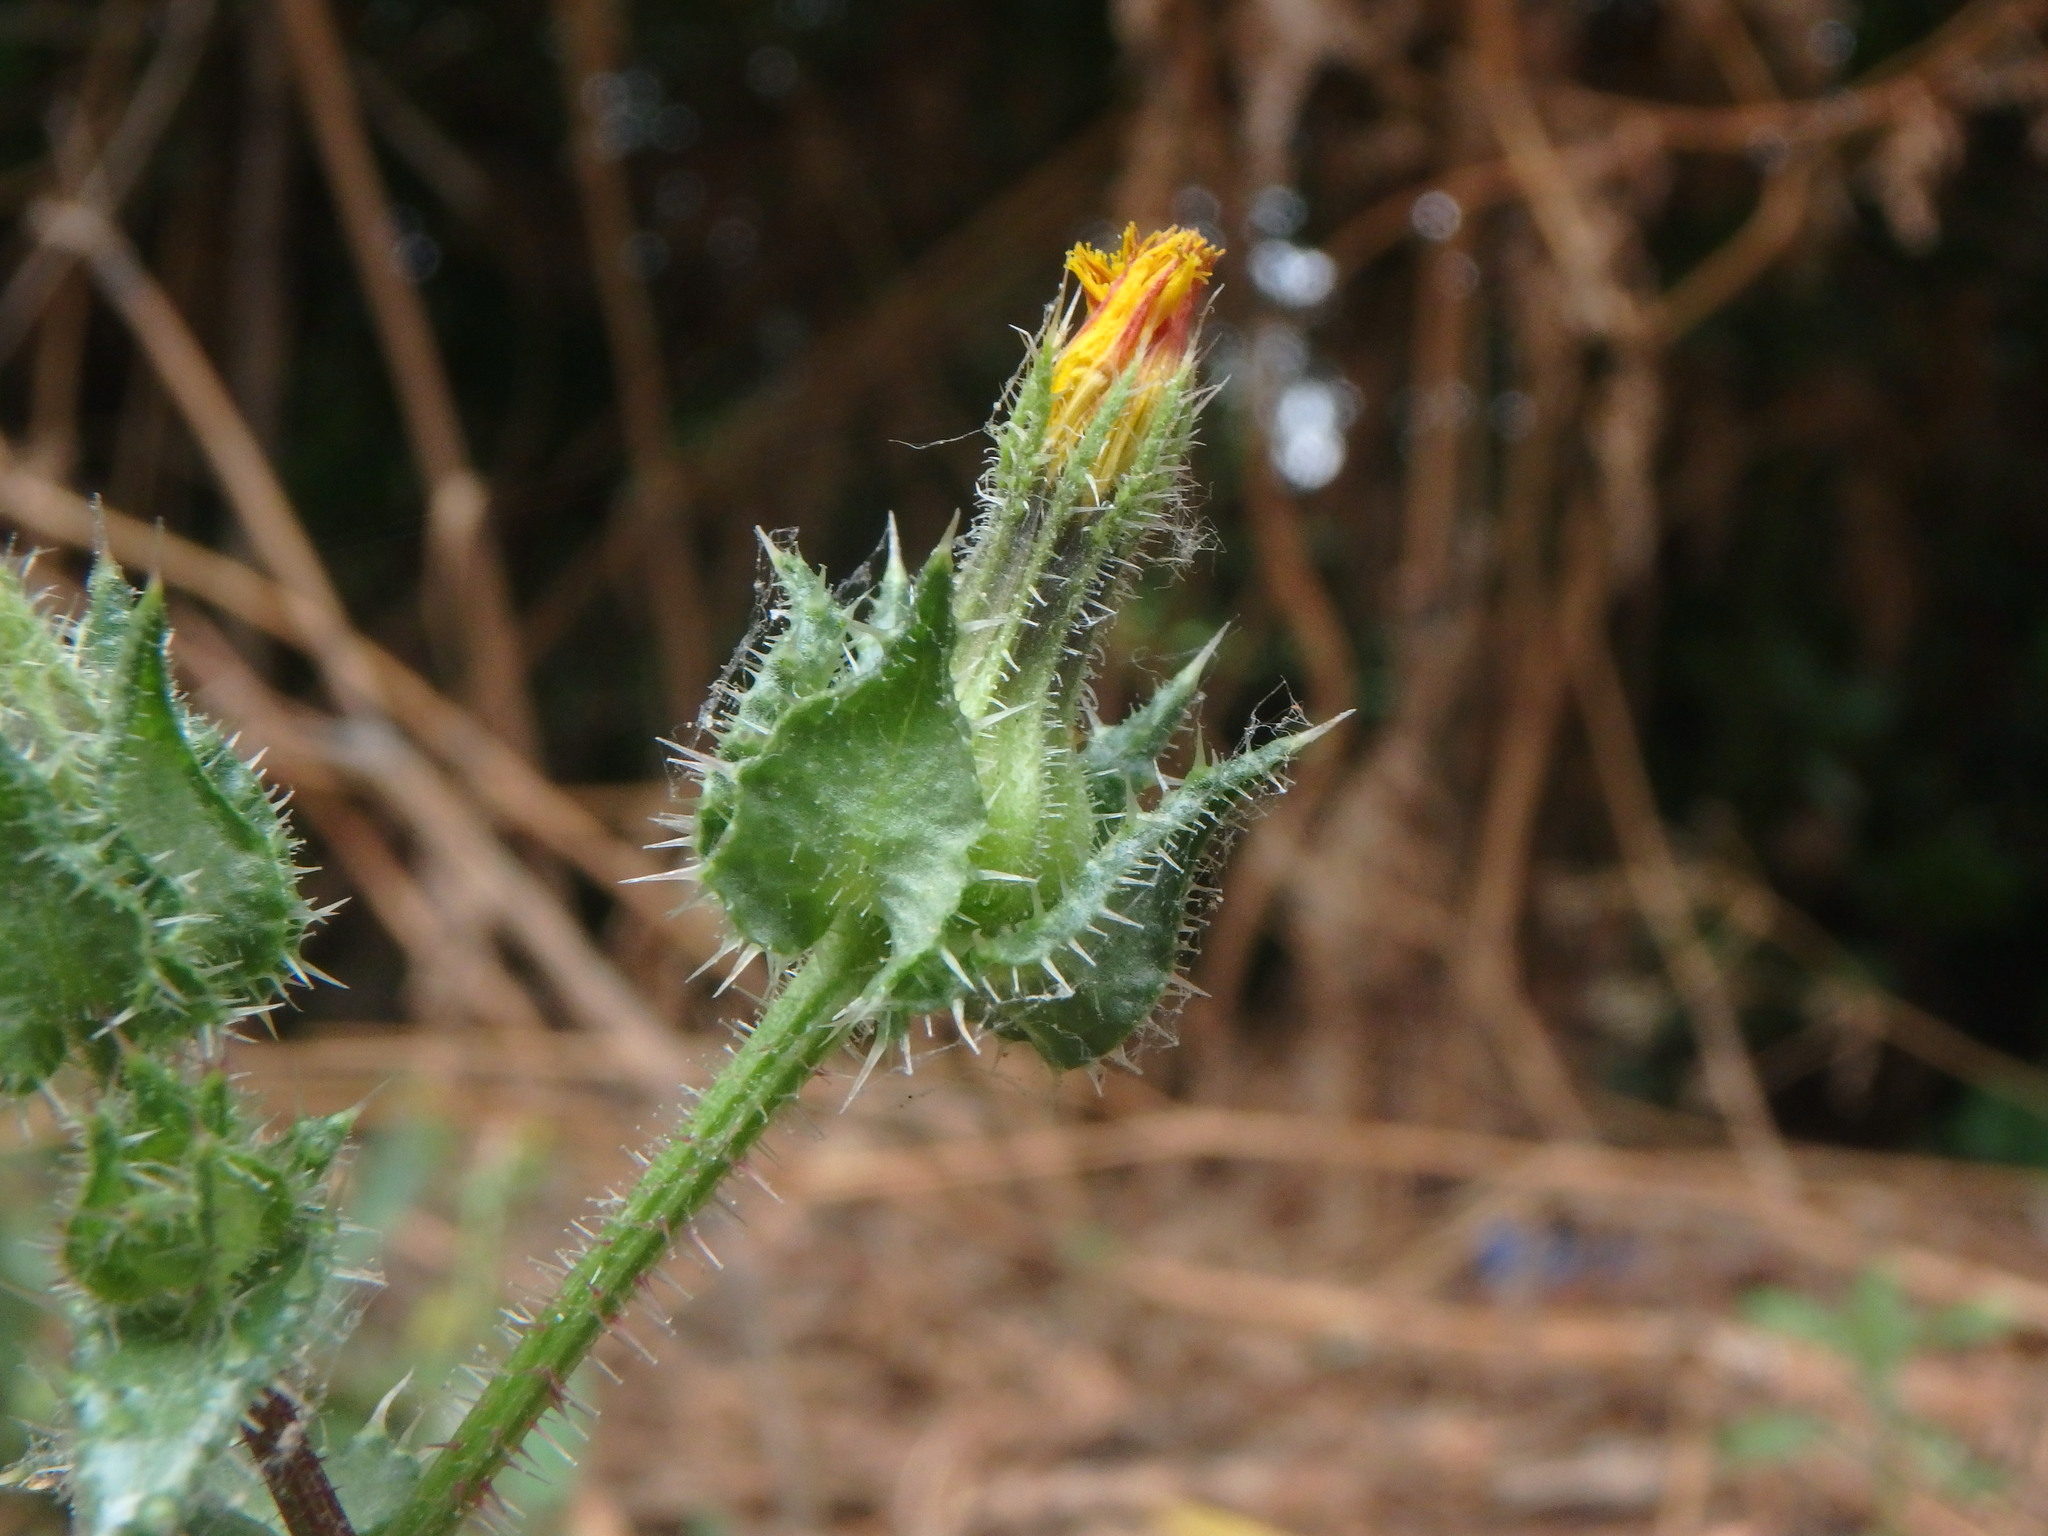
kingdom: Plantae
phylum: Tracheophyta
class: Magnoliopsida
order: Asterales
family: Asteraceae
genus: Helminthotheca
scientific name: Helminthotheca echioides
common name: Ox-tongue
